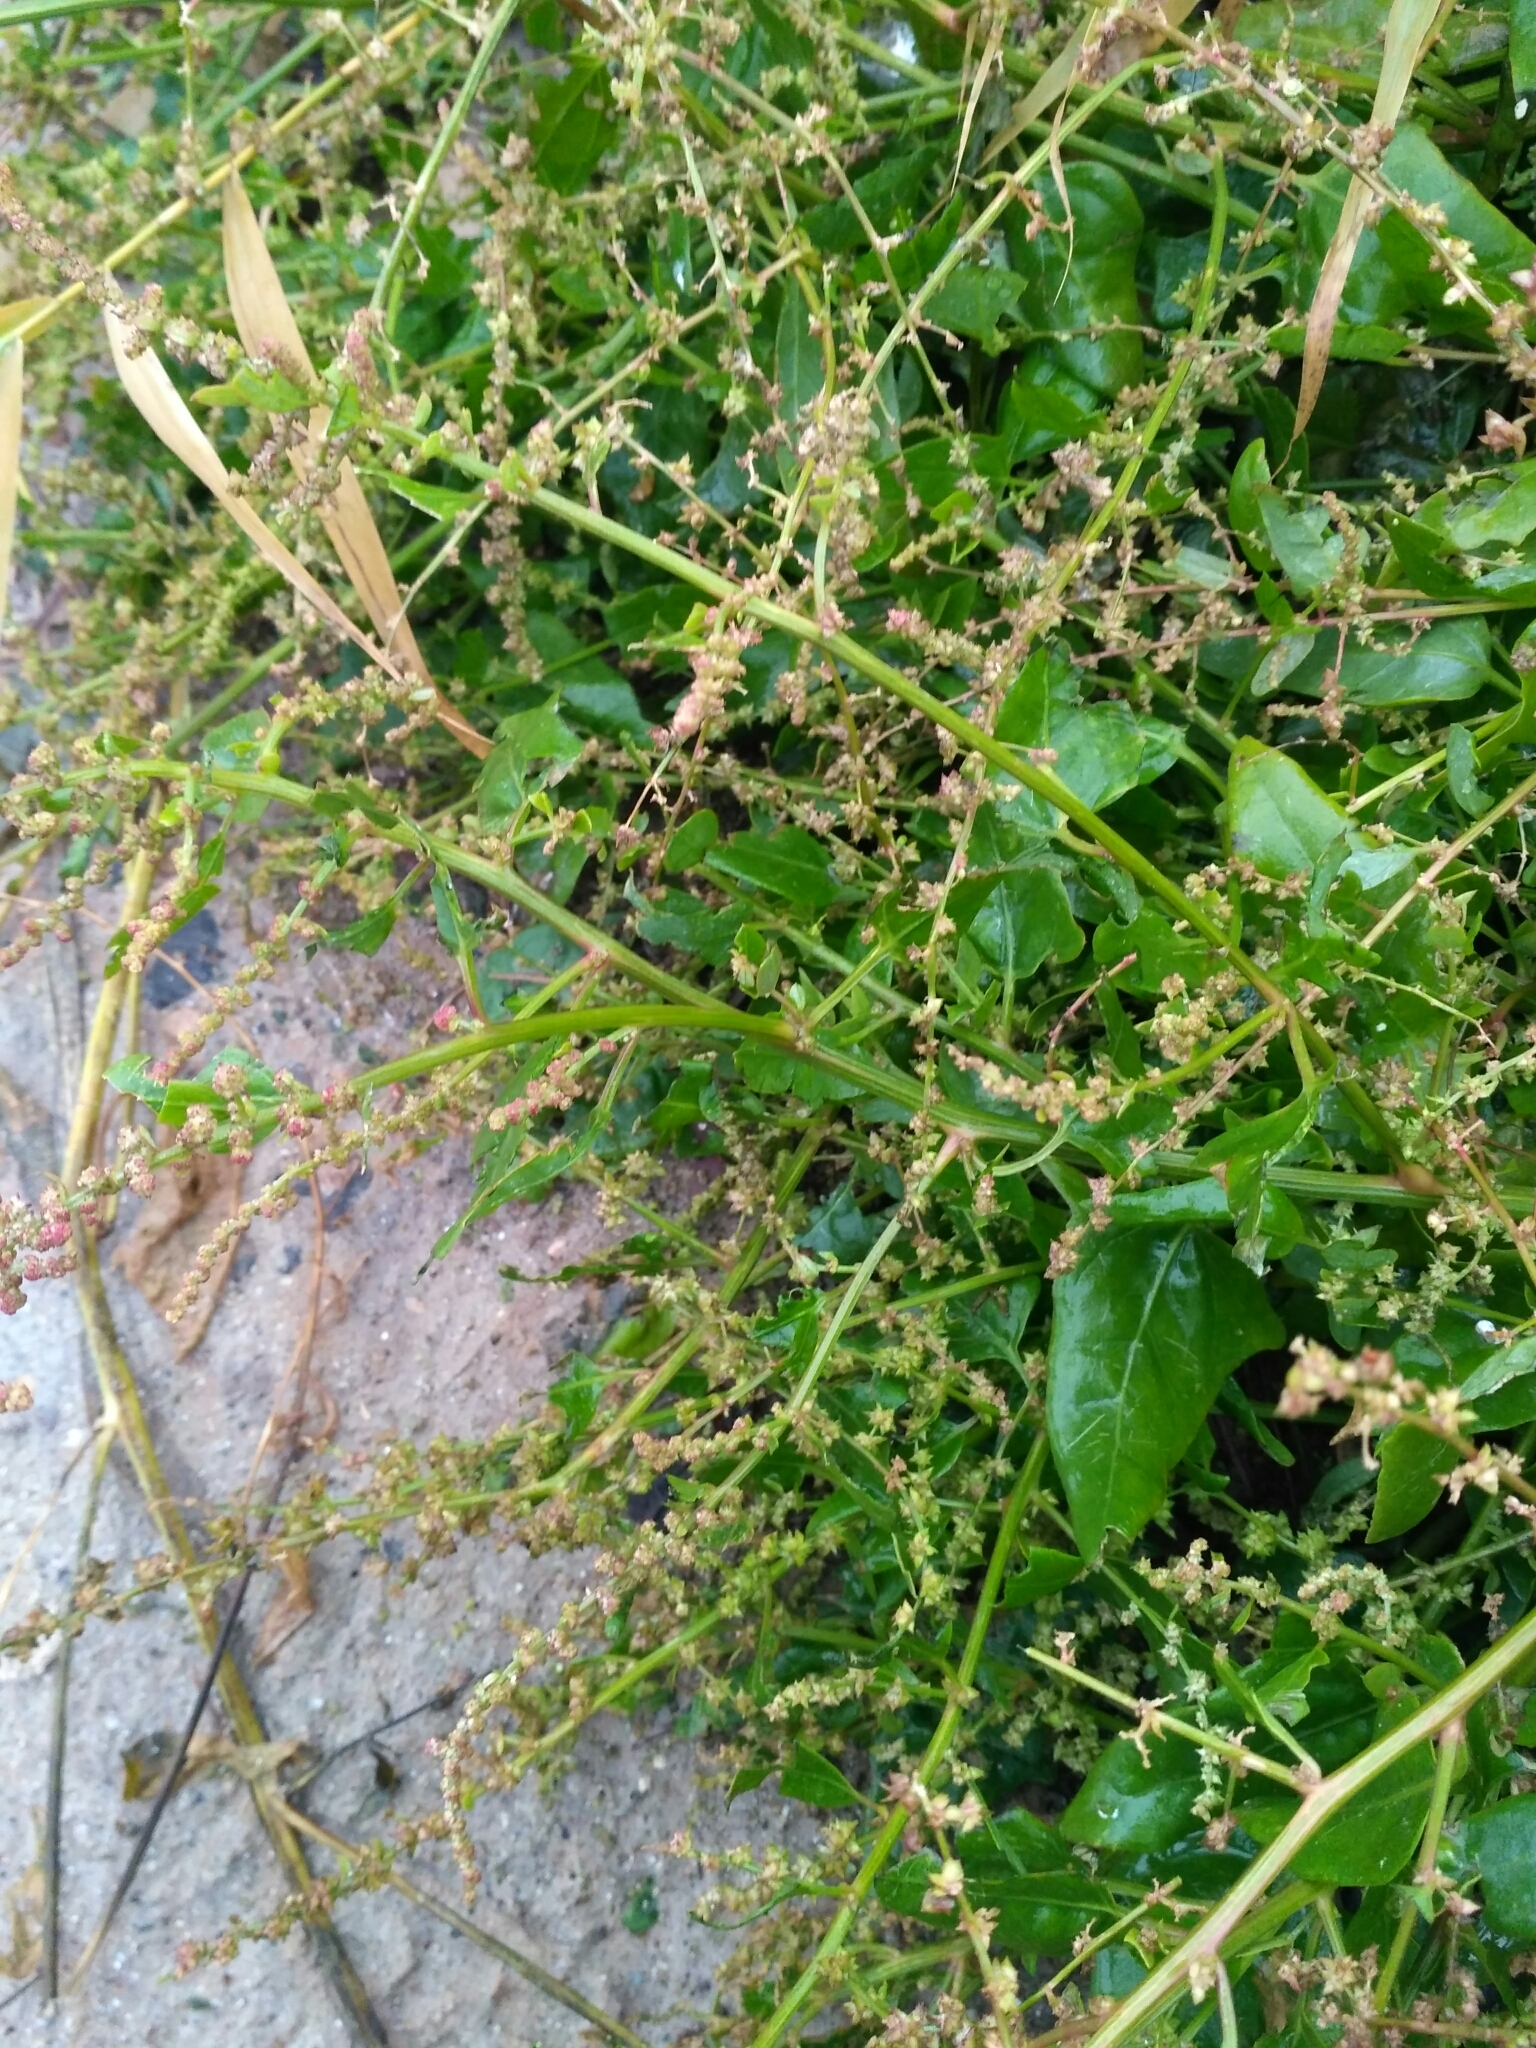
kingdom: Plantae
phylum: Tracheophyta
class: Magnoliopsida
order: Caryophyllales
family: Amaranthaceae
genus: Atriplex
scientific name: Atriplex prostrata
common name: Spear-leaved orache
